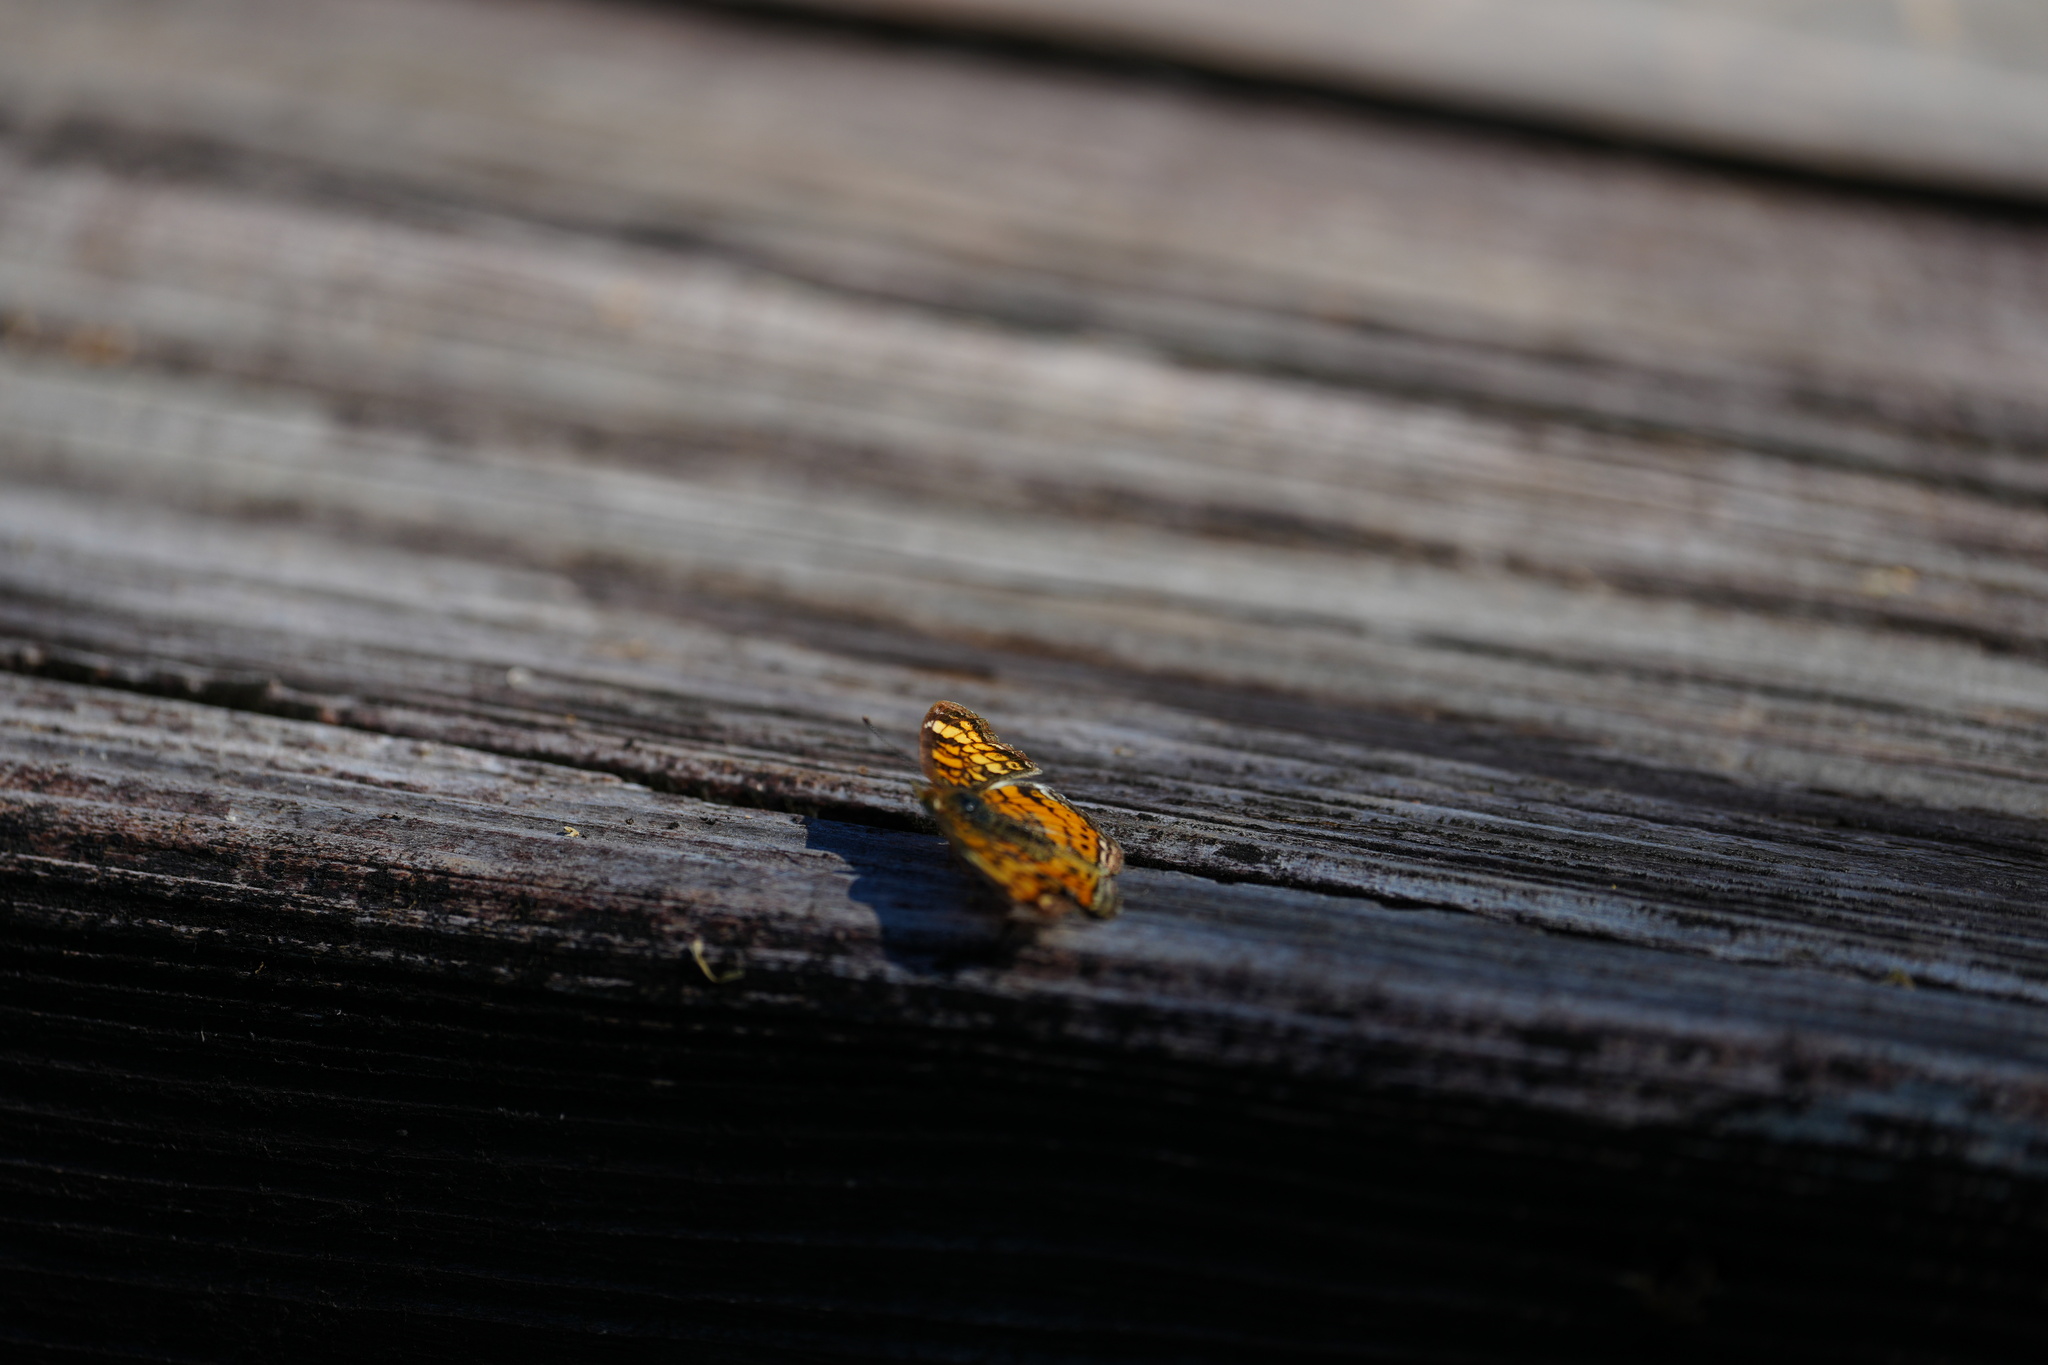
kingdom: Animalia
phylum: Arthropoda
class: Insecta
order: Lepidoptera
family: Nymphalidae
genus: Phyciodes
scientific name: Phyciodes tharos
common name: Pearl crescent
